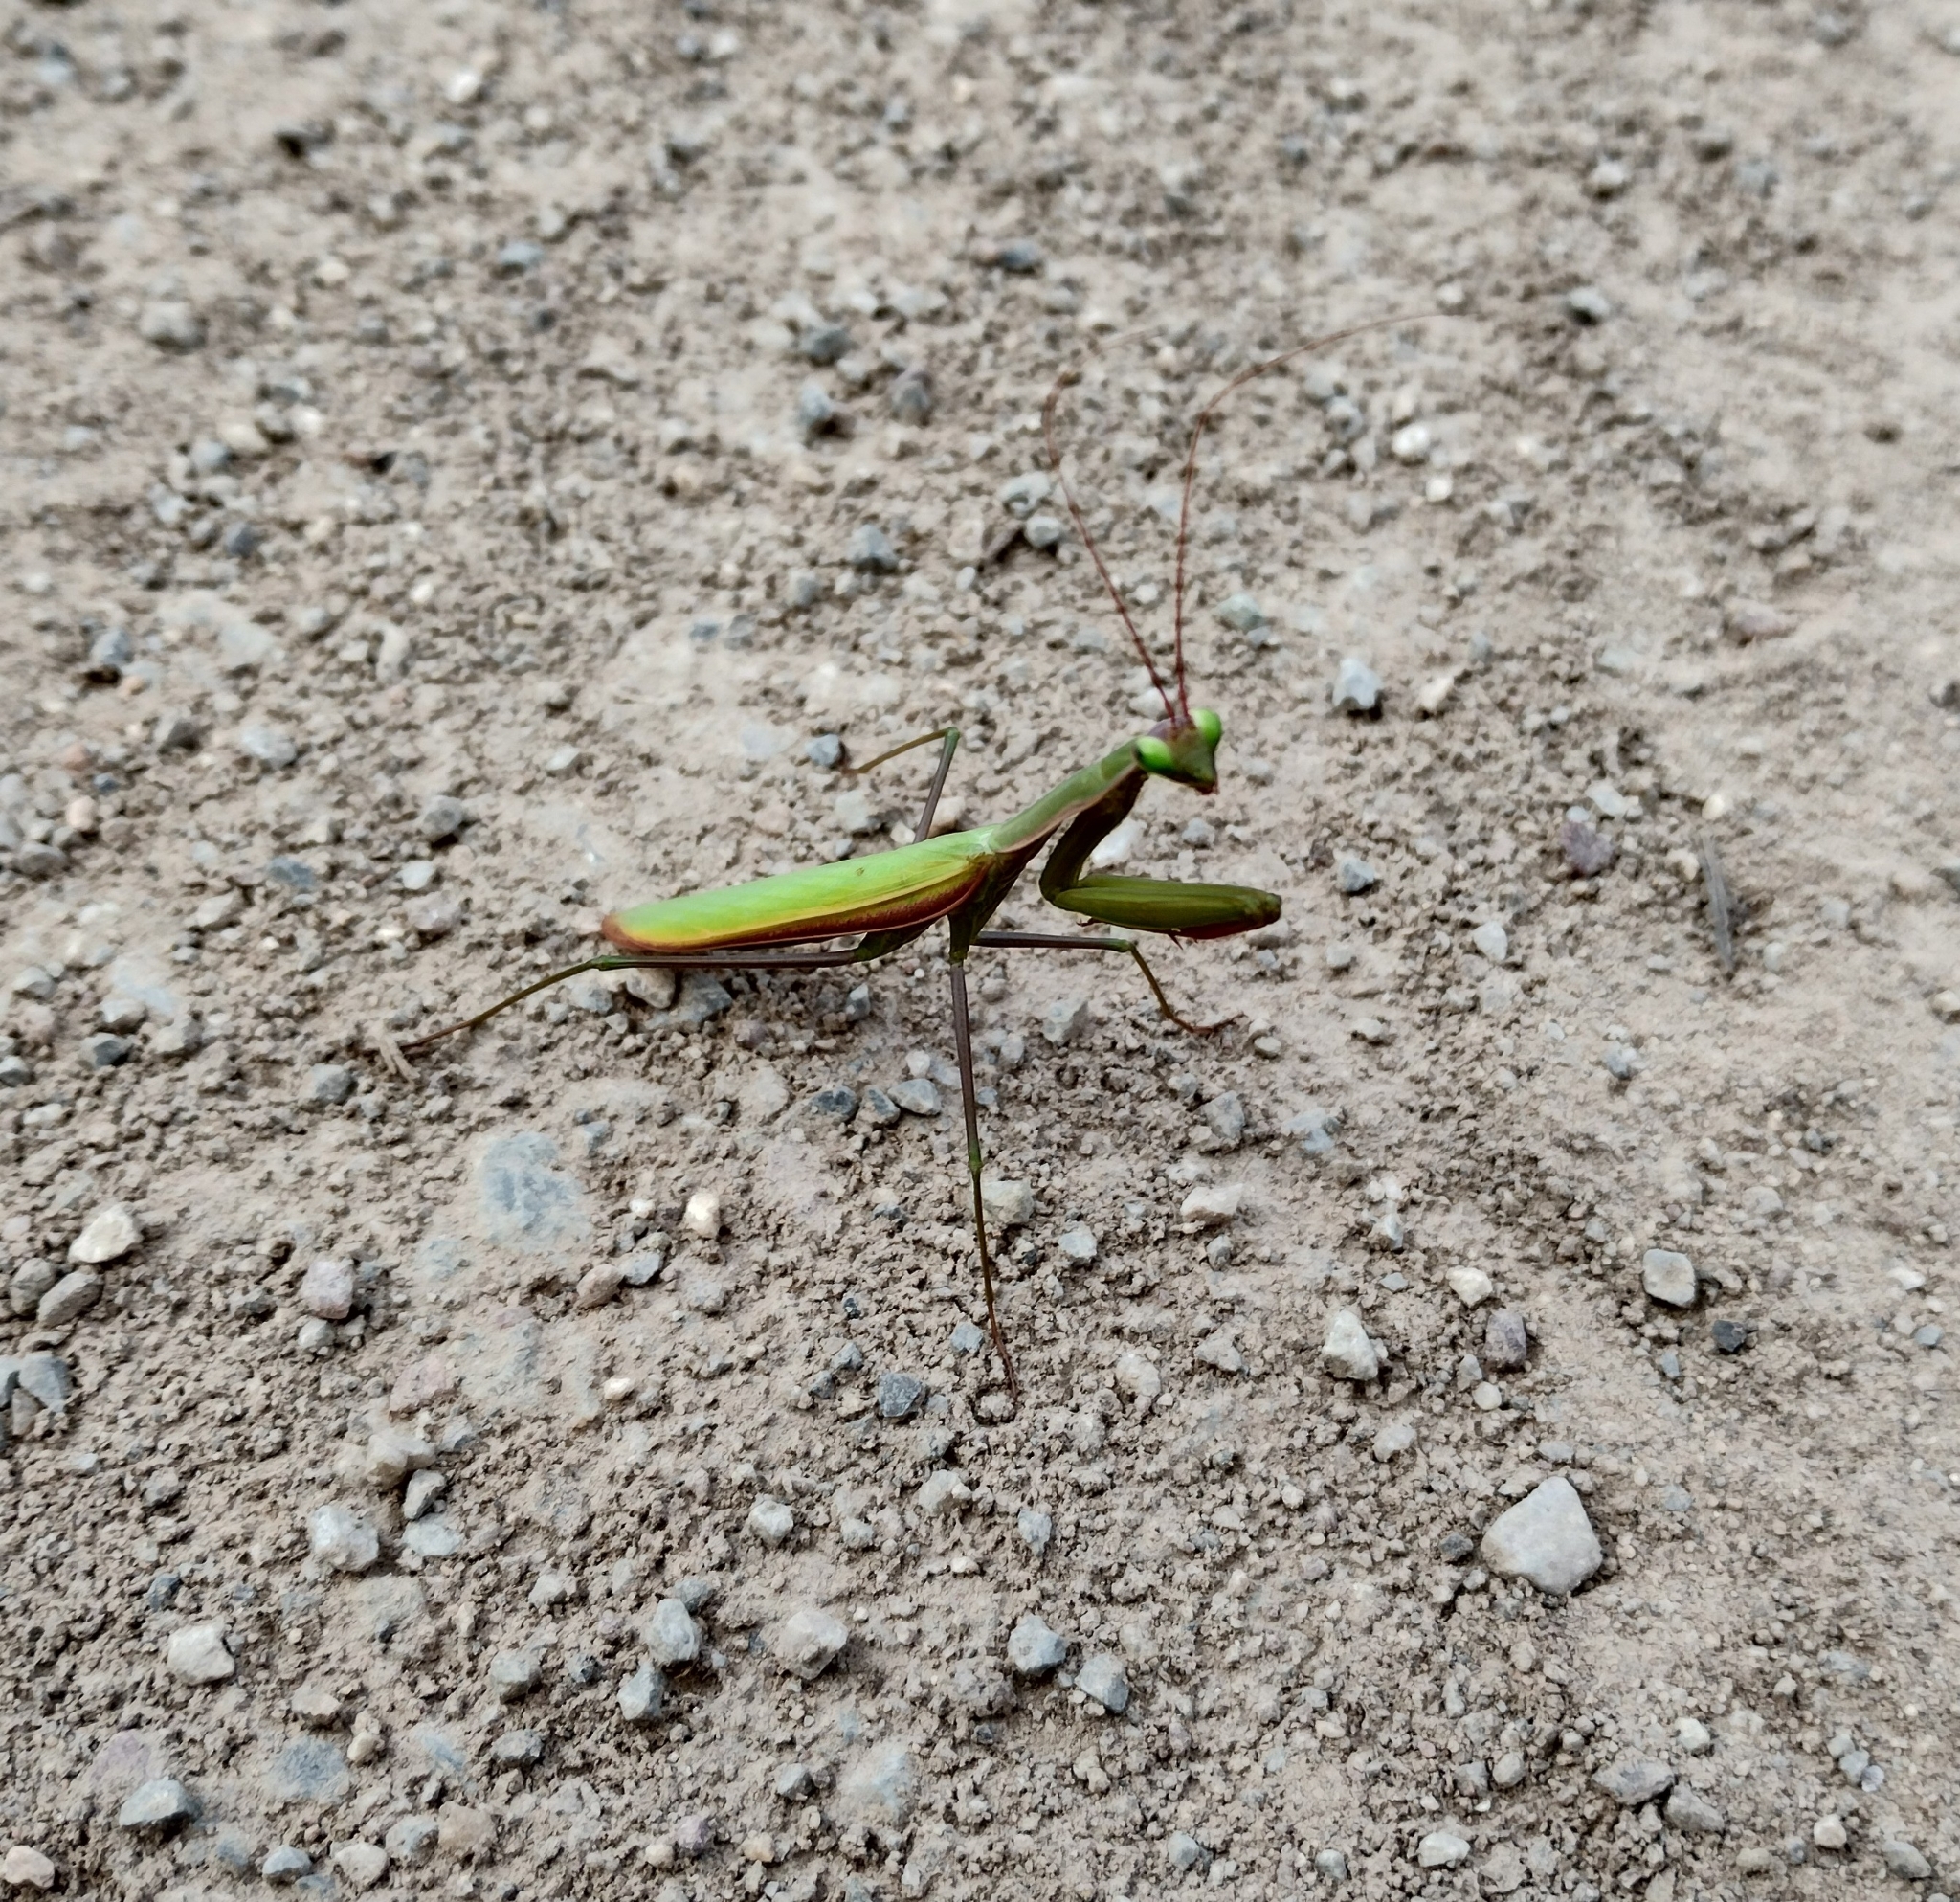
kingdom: Animalia
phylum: Arthropoda
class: Insecta
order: Mantodea
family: Mantidae
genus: Mantis
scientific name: Mantis religiosa
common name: Praying mantis
